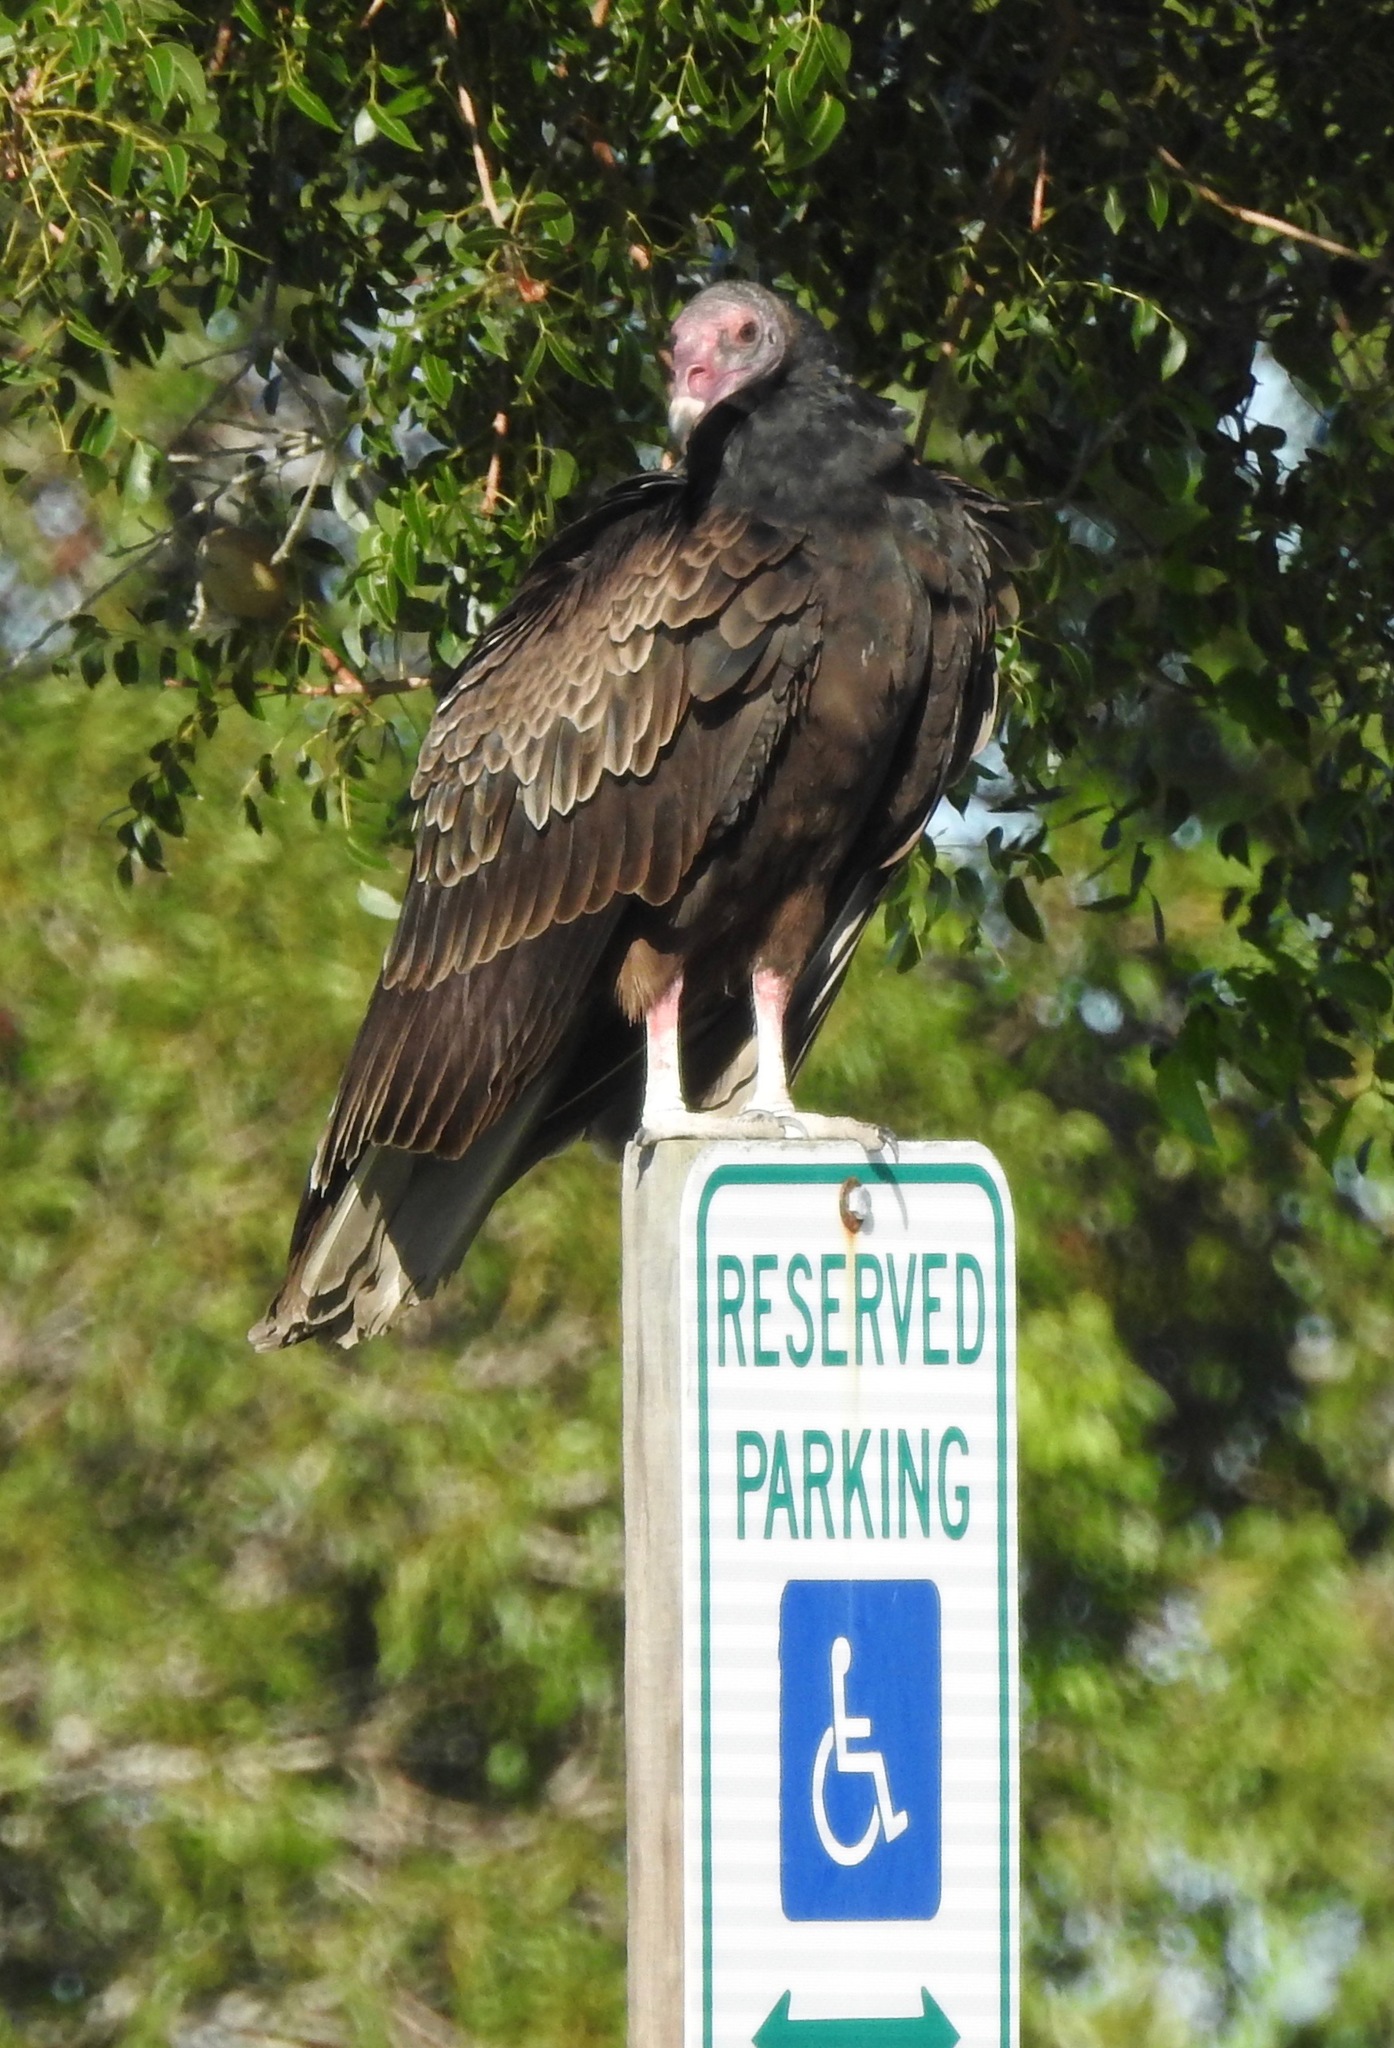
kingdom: Animalia
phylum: Chordata
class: Aves
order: Accipitriformes
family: Cathartidae
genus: Cathartes
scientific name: Cathartes aura
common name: Turkey vulture
